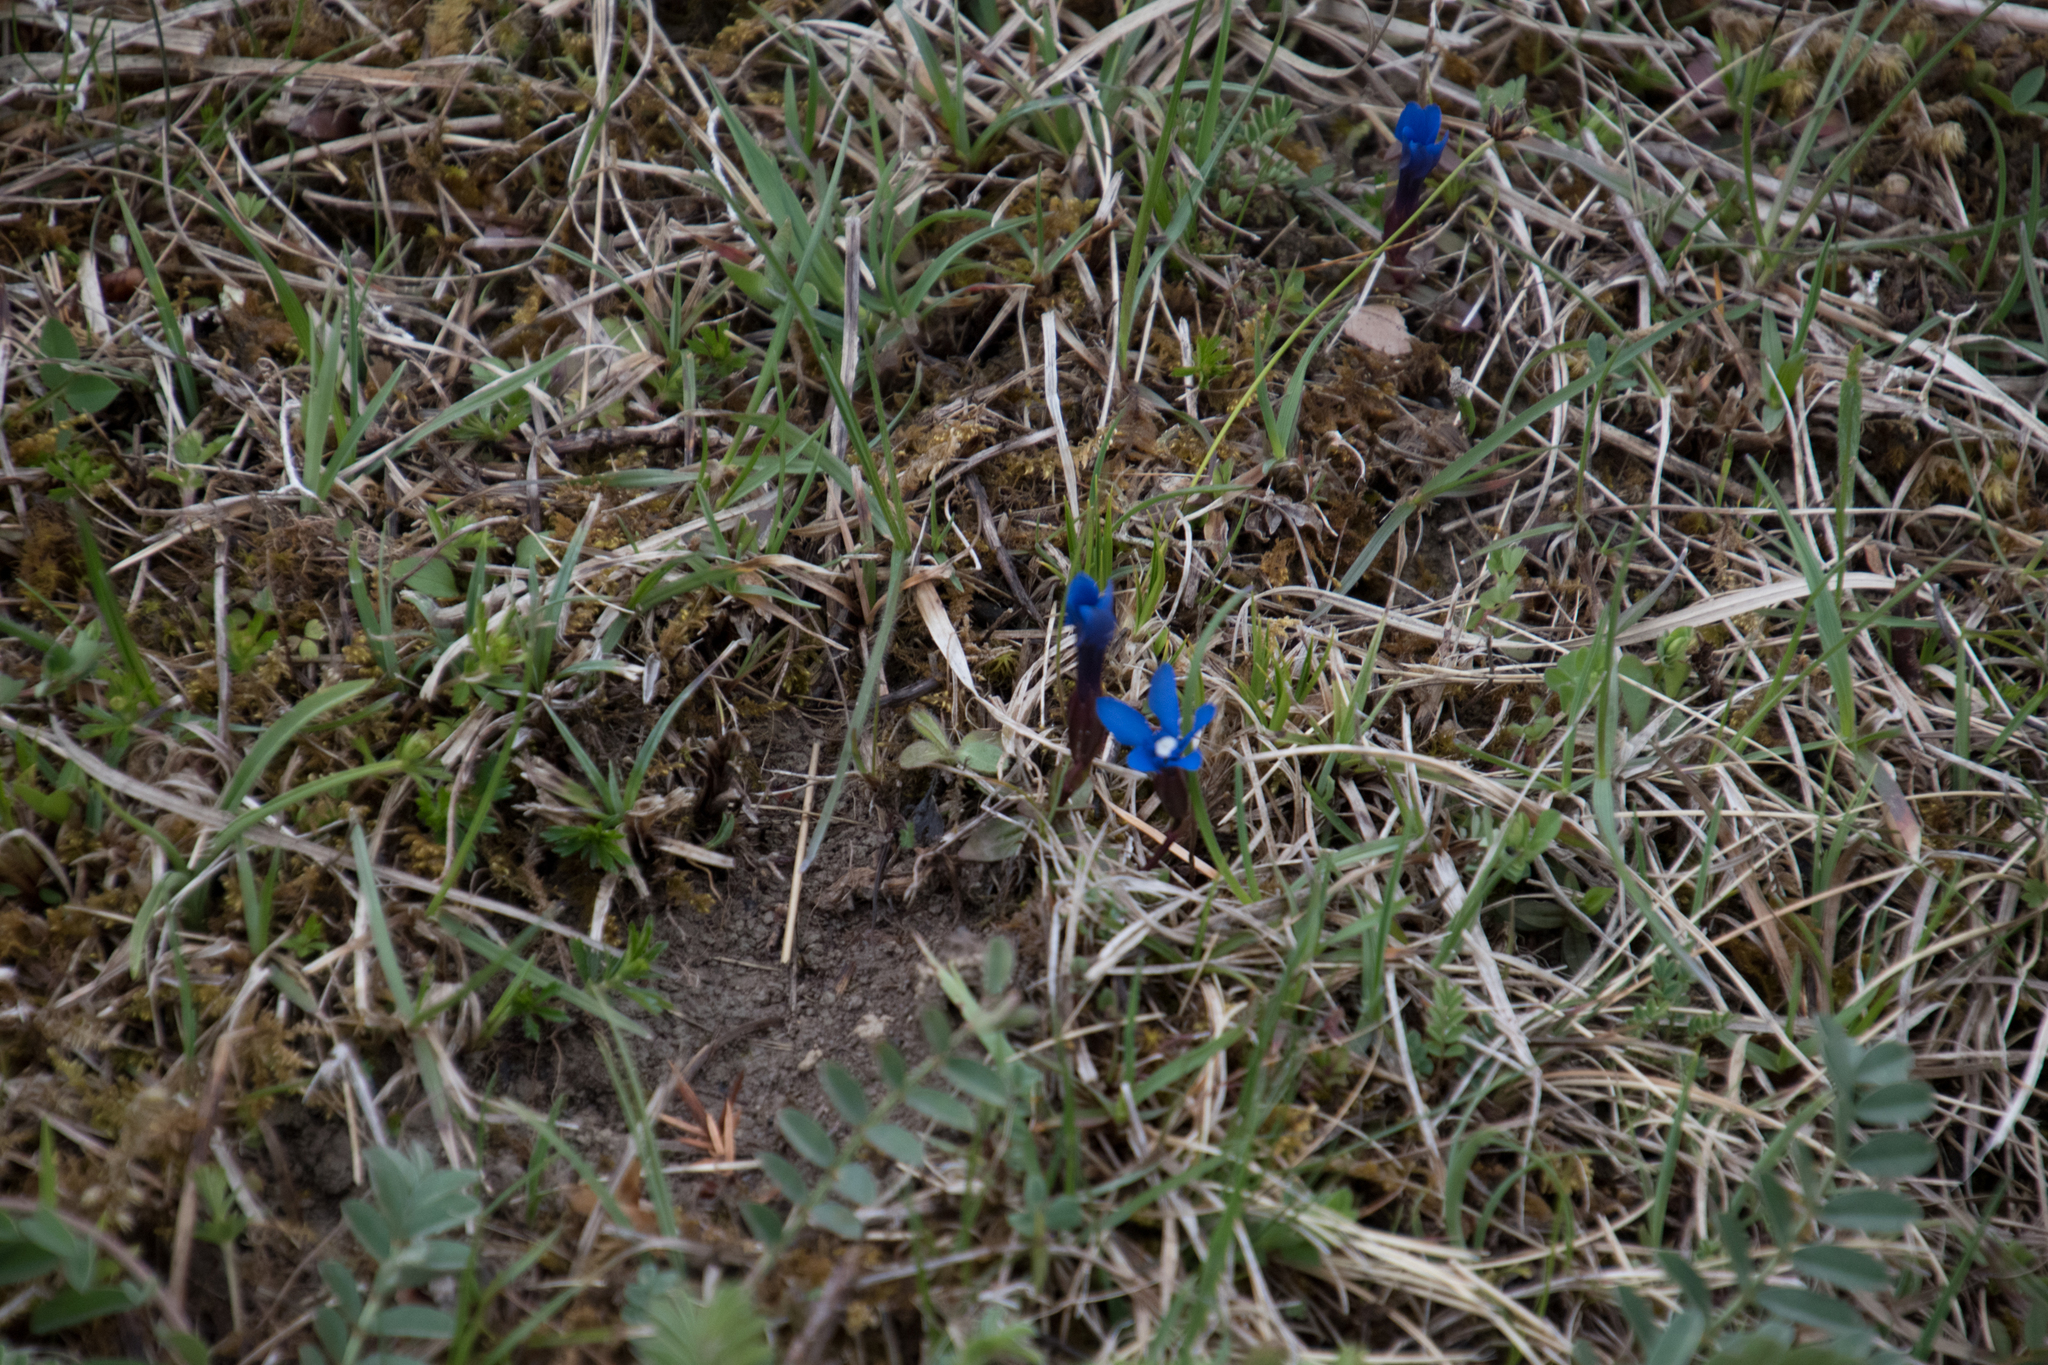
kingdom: Plantae
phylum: Tracheophyta
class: Magnoliopsida
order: Gentianales
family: Gentianaceae
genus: Gentiana
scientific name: Gentiana verna
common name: Spring gentian
